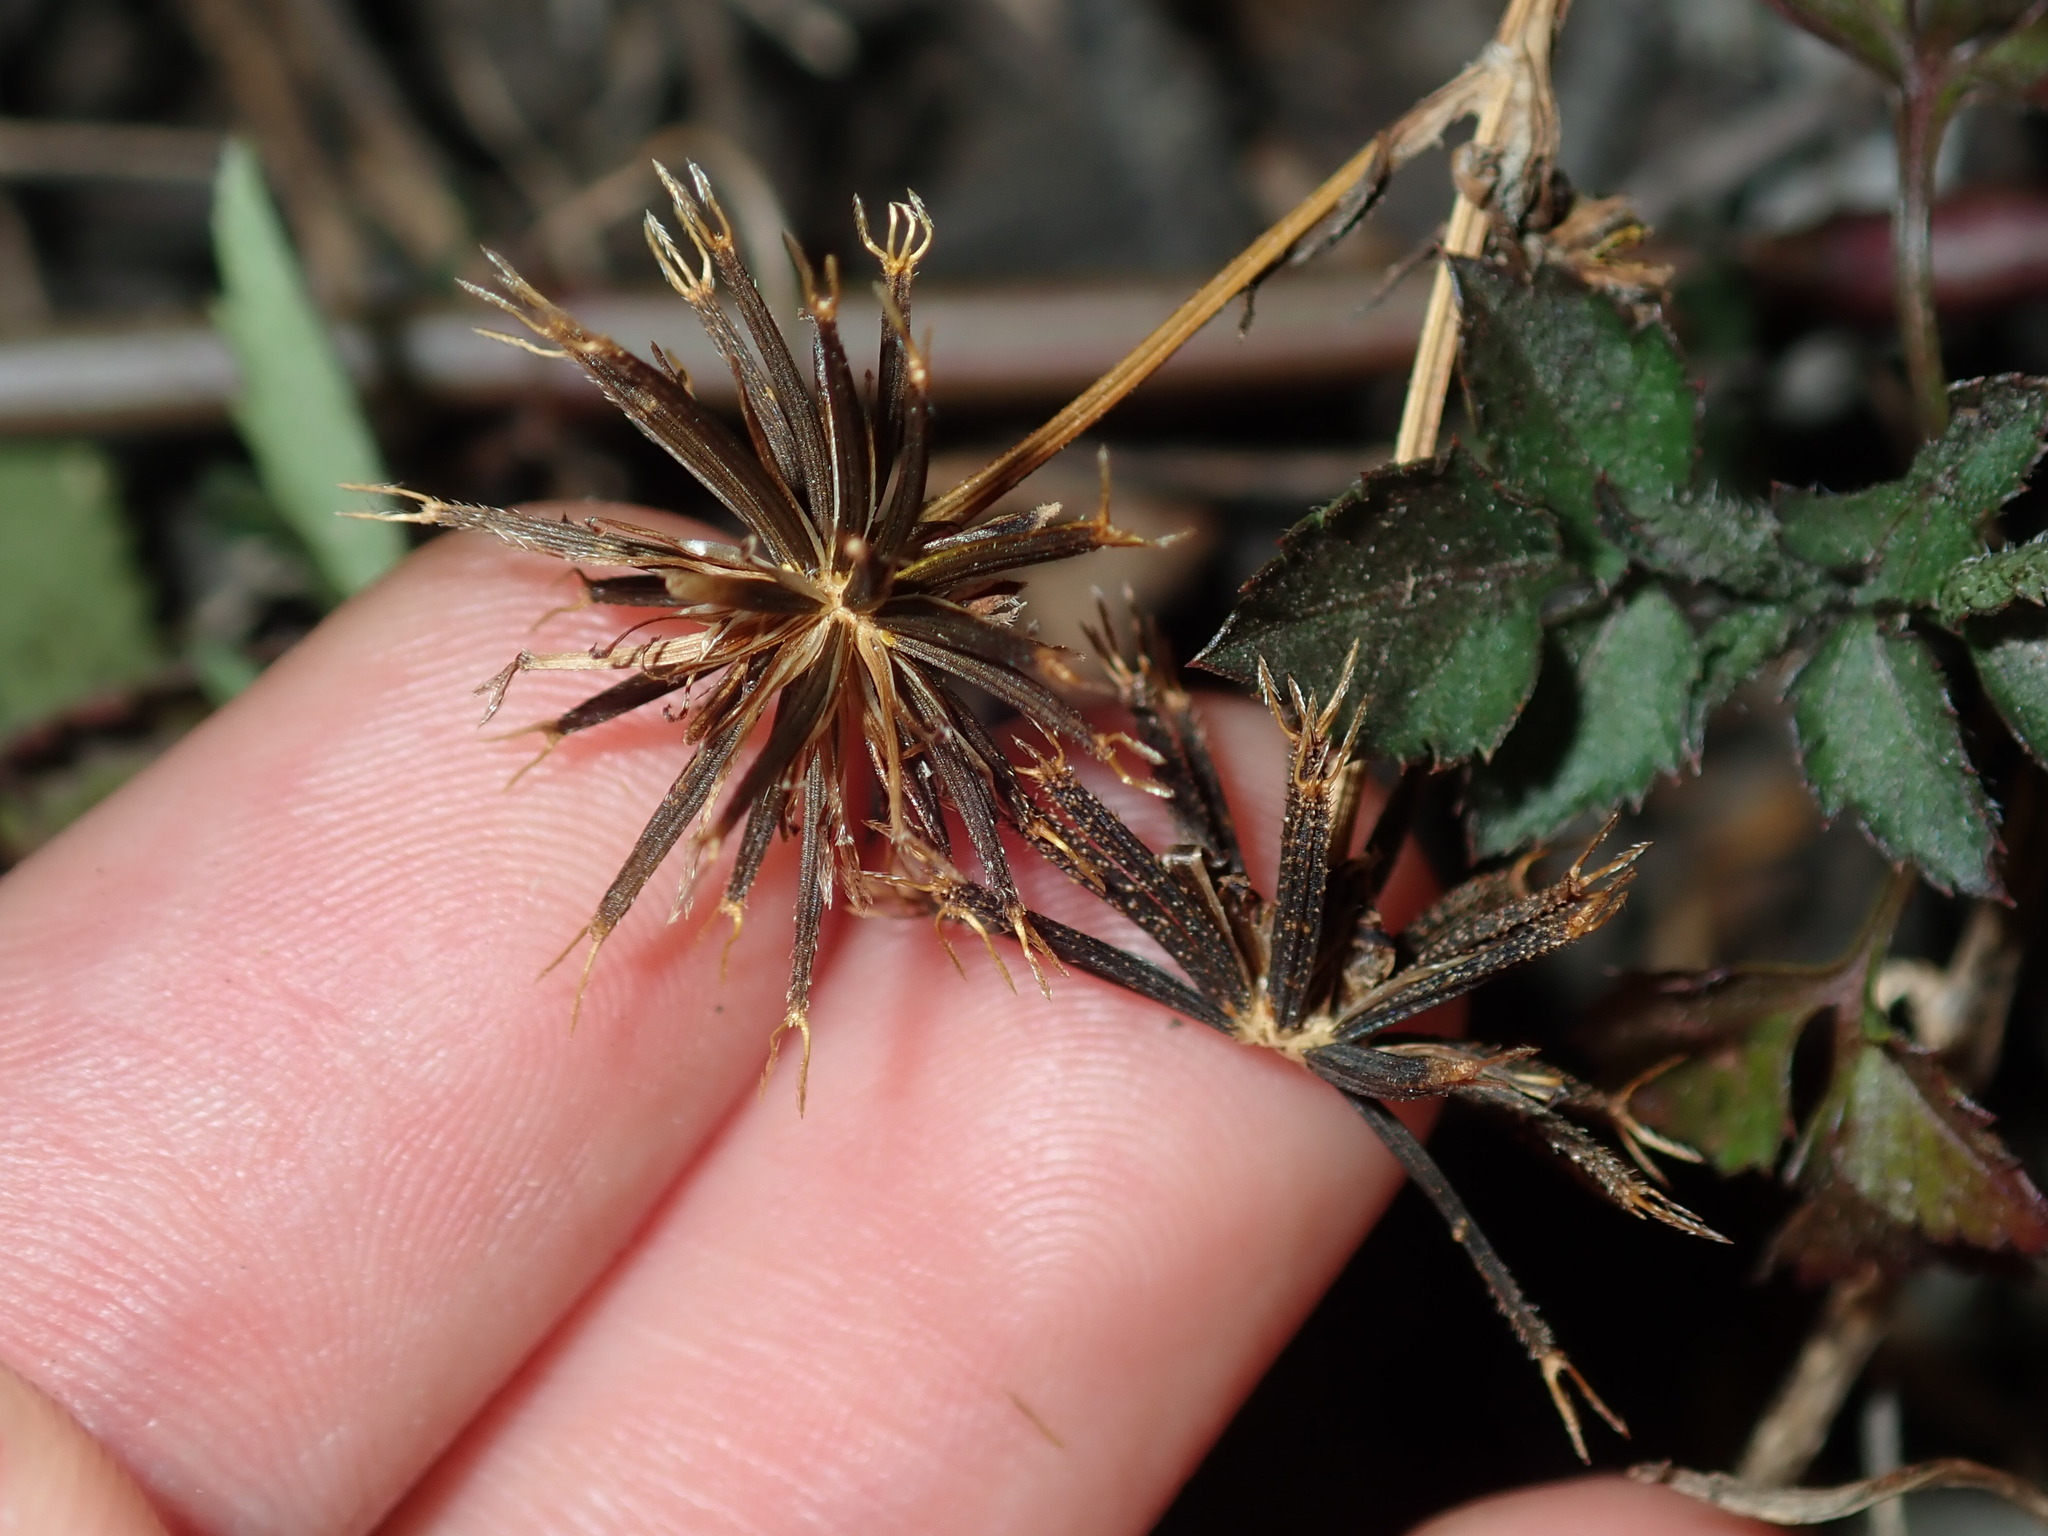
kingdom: Plantae
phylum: Tracheophyta
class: Magnoliopsida
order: Asterales
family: Asteraceae
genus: Bidens
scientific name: Bidens pilosa
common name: Black-jack
